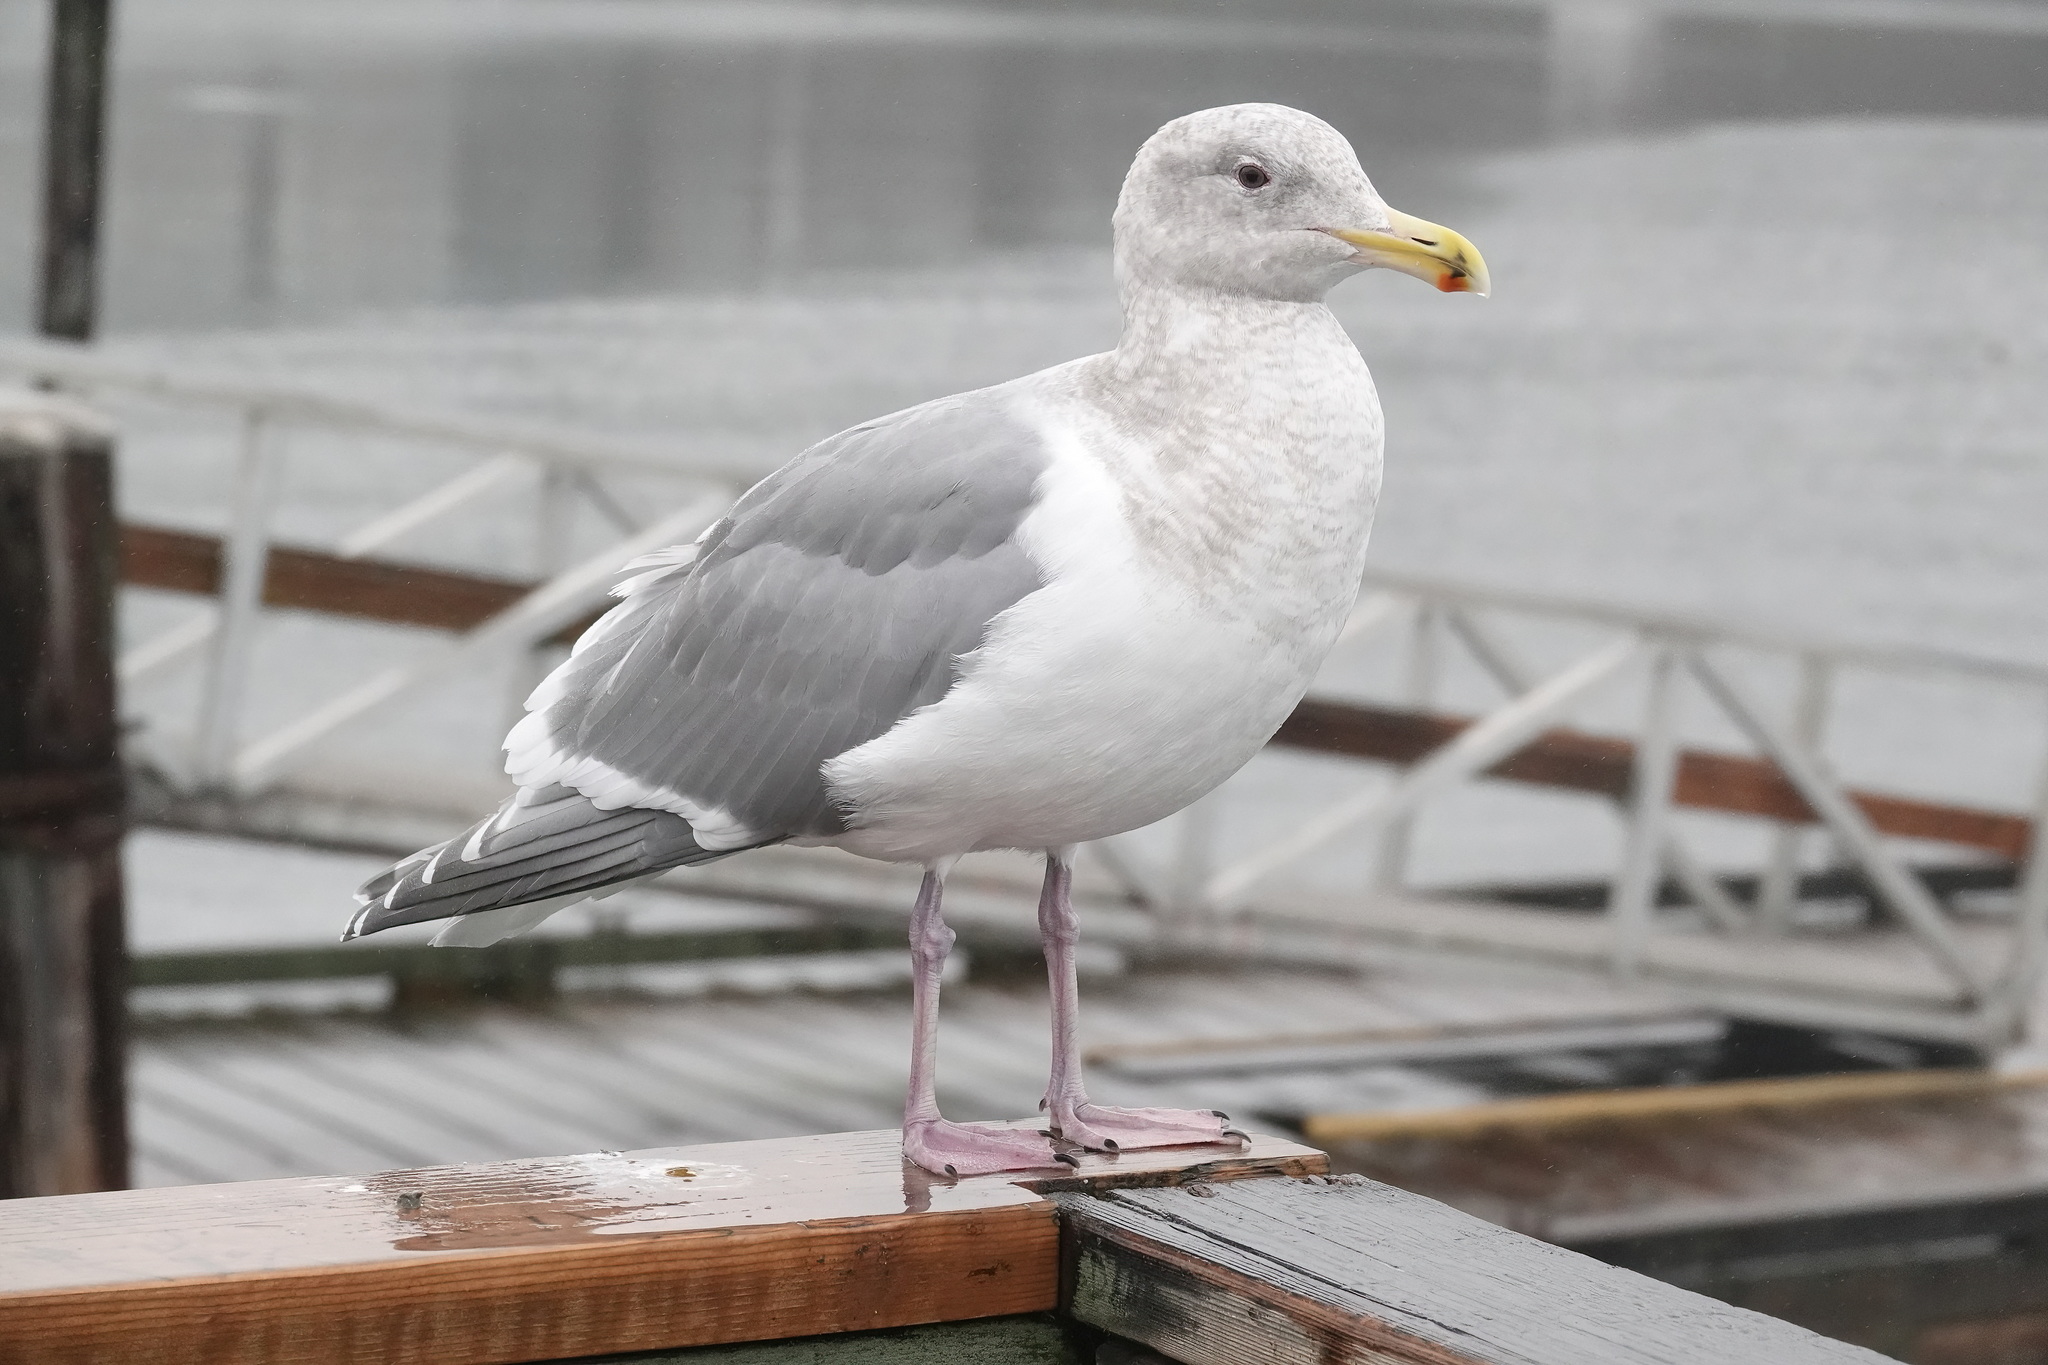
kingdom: Animalia
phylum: Chordata
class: Aves
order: Charadriiformes
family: Laridae
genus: Larus
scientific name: Larus
